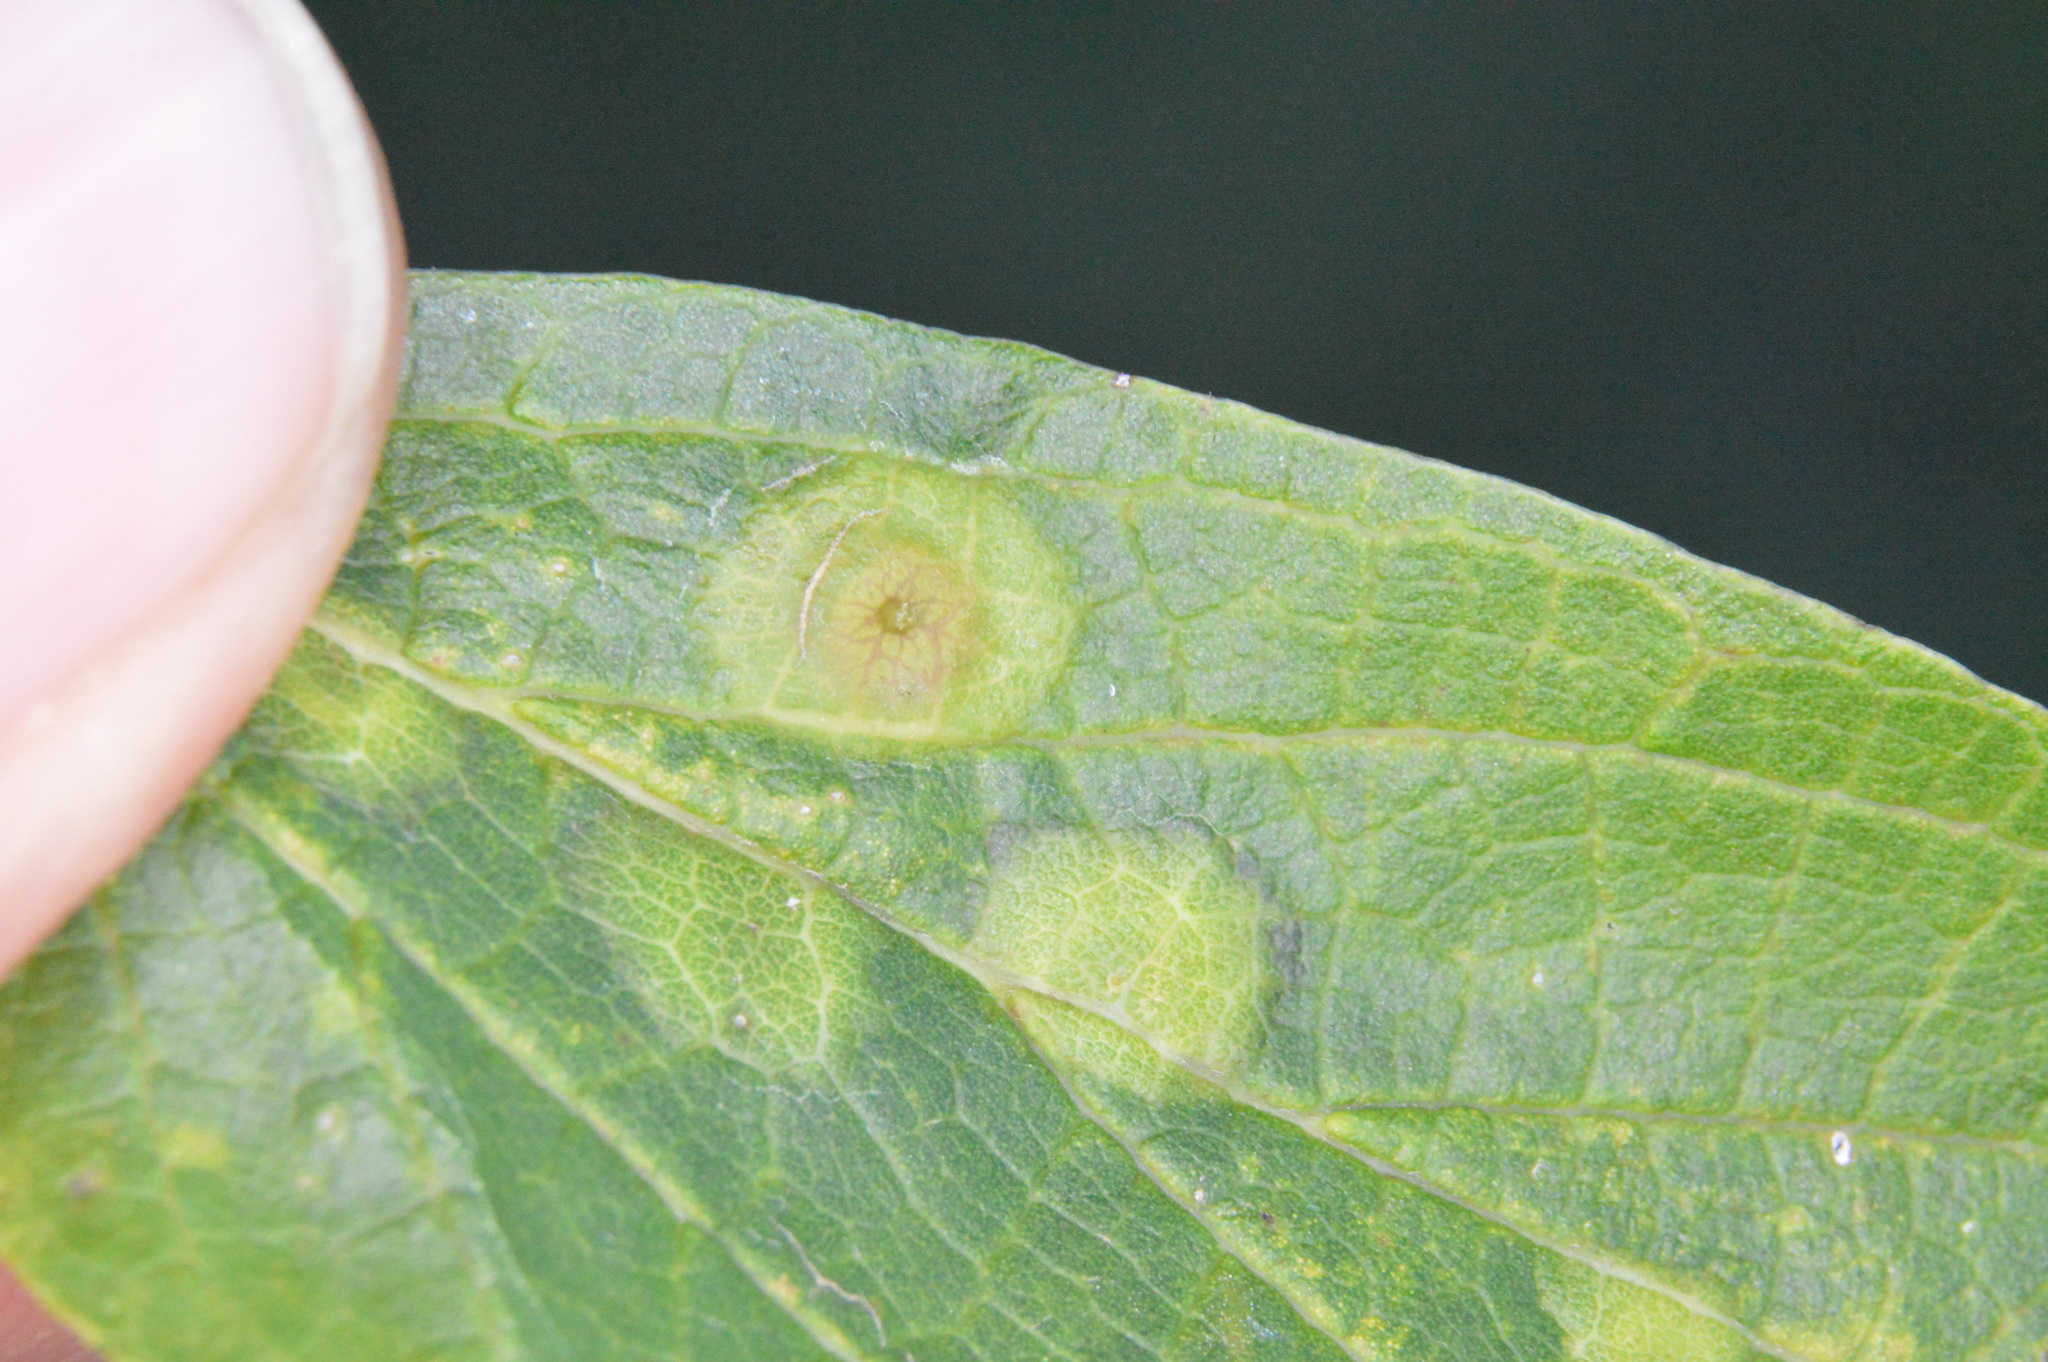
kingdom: Animalia
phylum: Arthropoda
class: Insecta
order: Hemiptera
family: Aphalaridae
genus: Pachypsylla
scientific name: Pachypsylla celtidisasterisca
